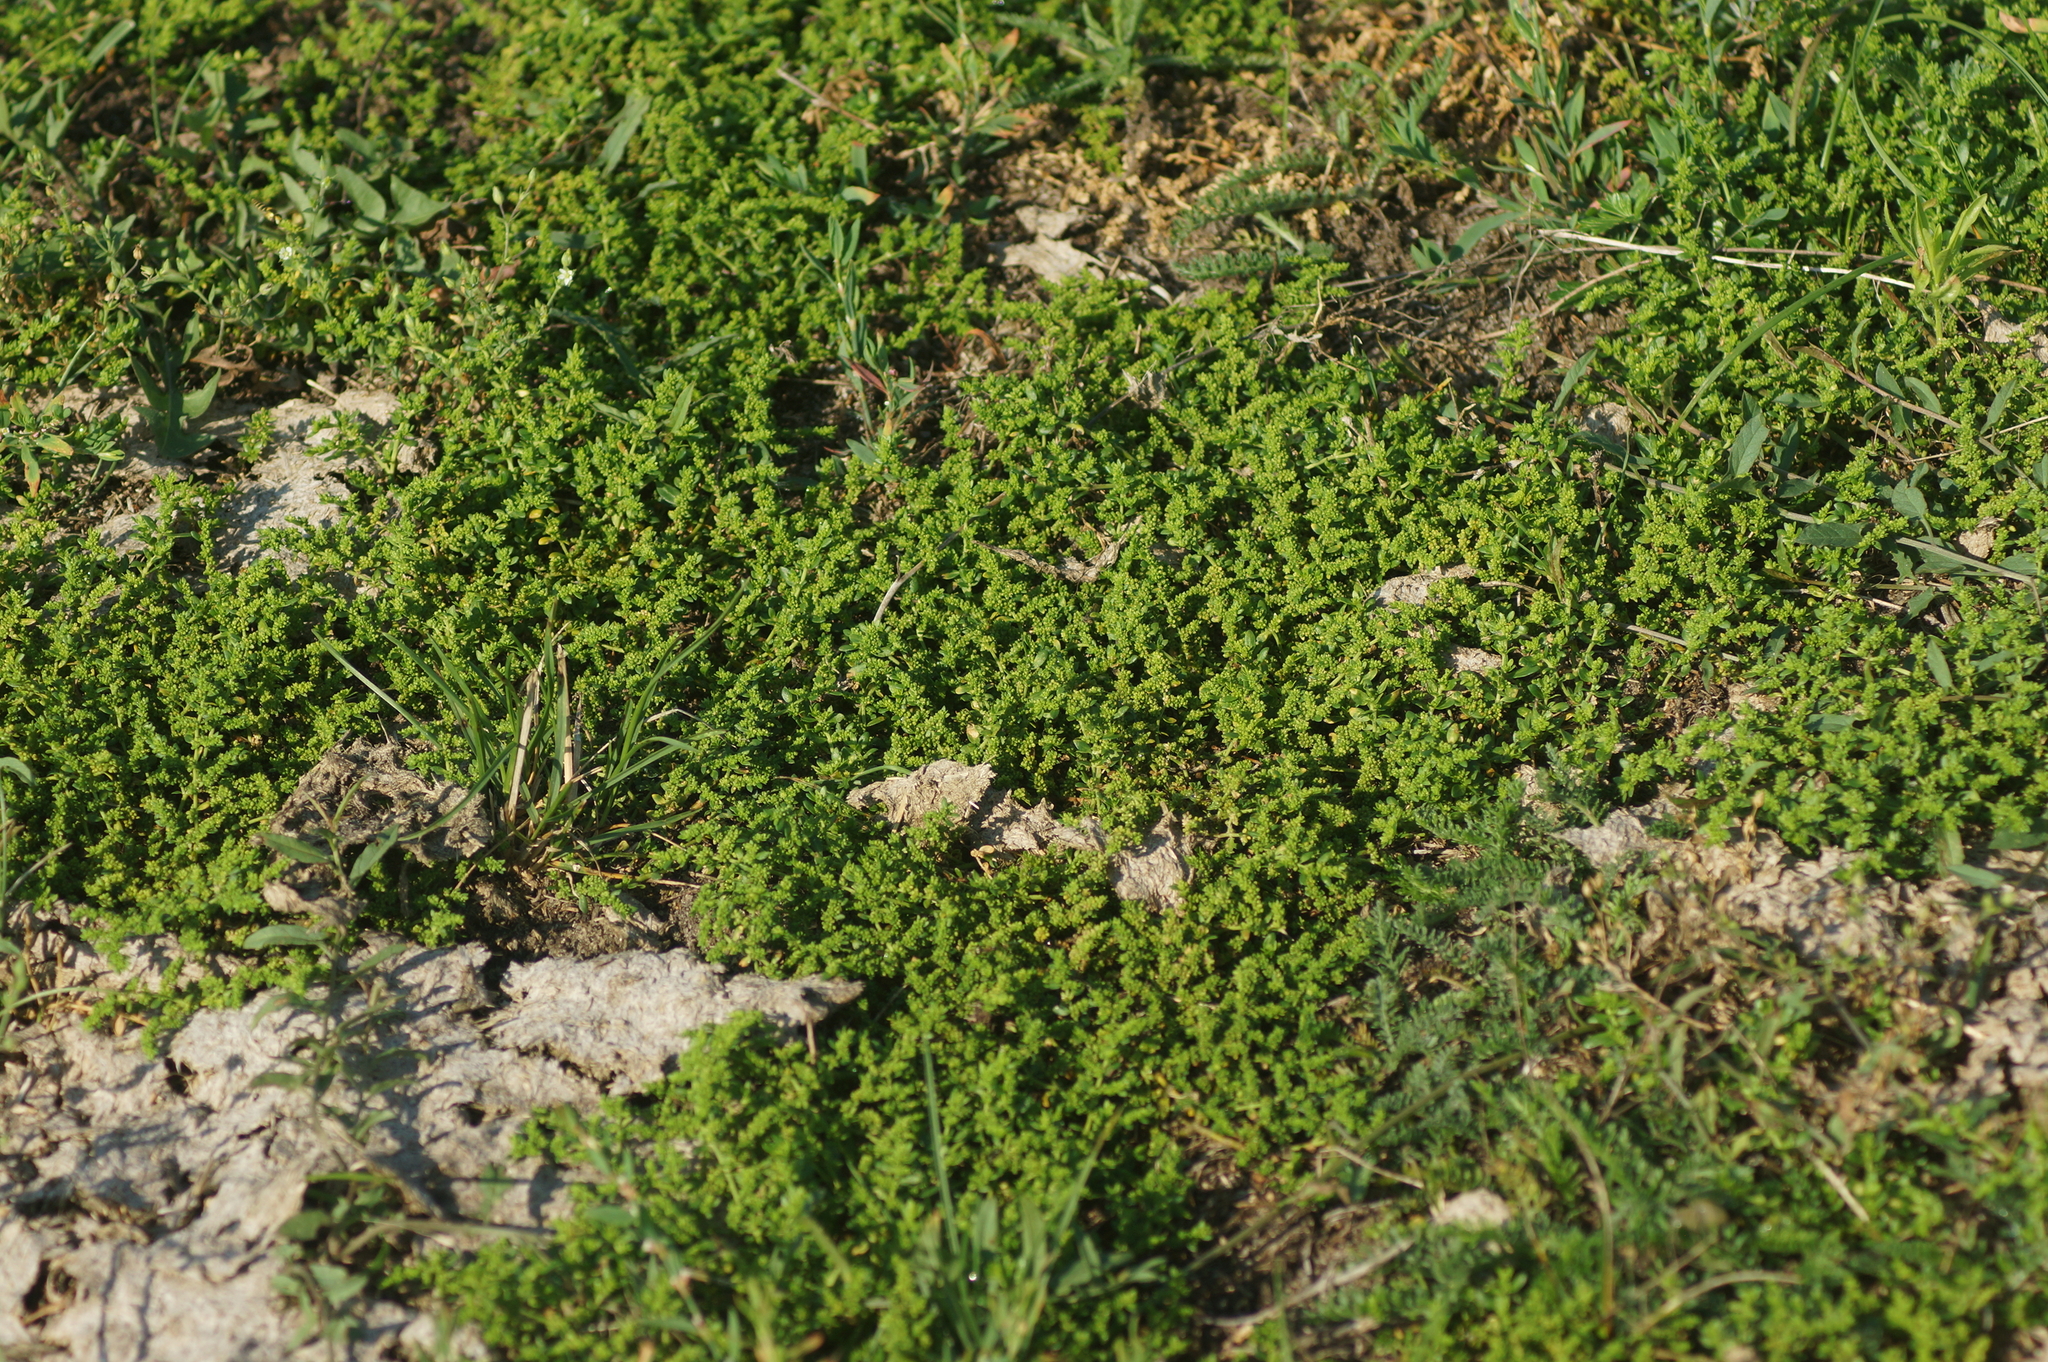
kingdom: Plantae
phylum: Tracheophyta
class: Magnoliopsida
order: Caryophyllales
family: Caryophyllaceae
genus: Herniaria
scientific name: Herniaria glabra
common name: Smooth rupturewort
